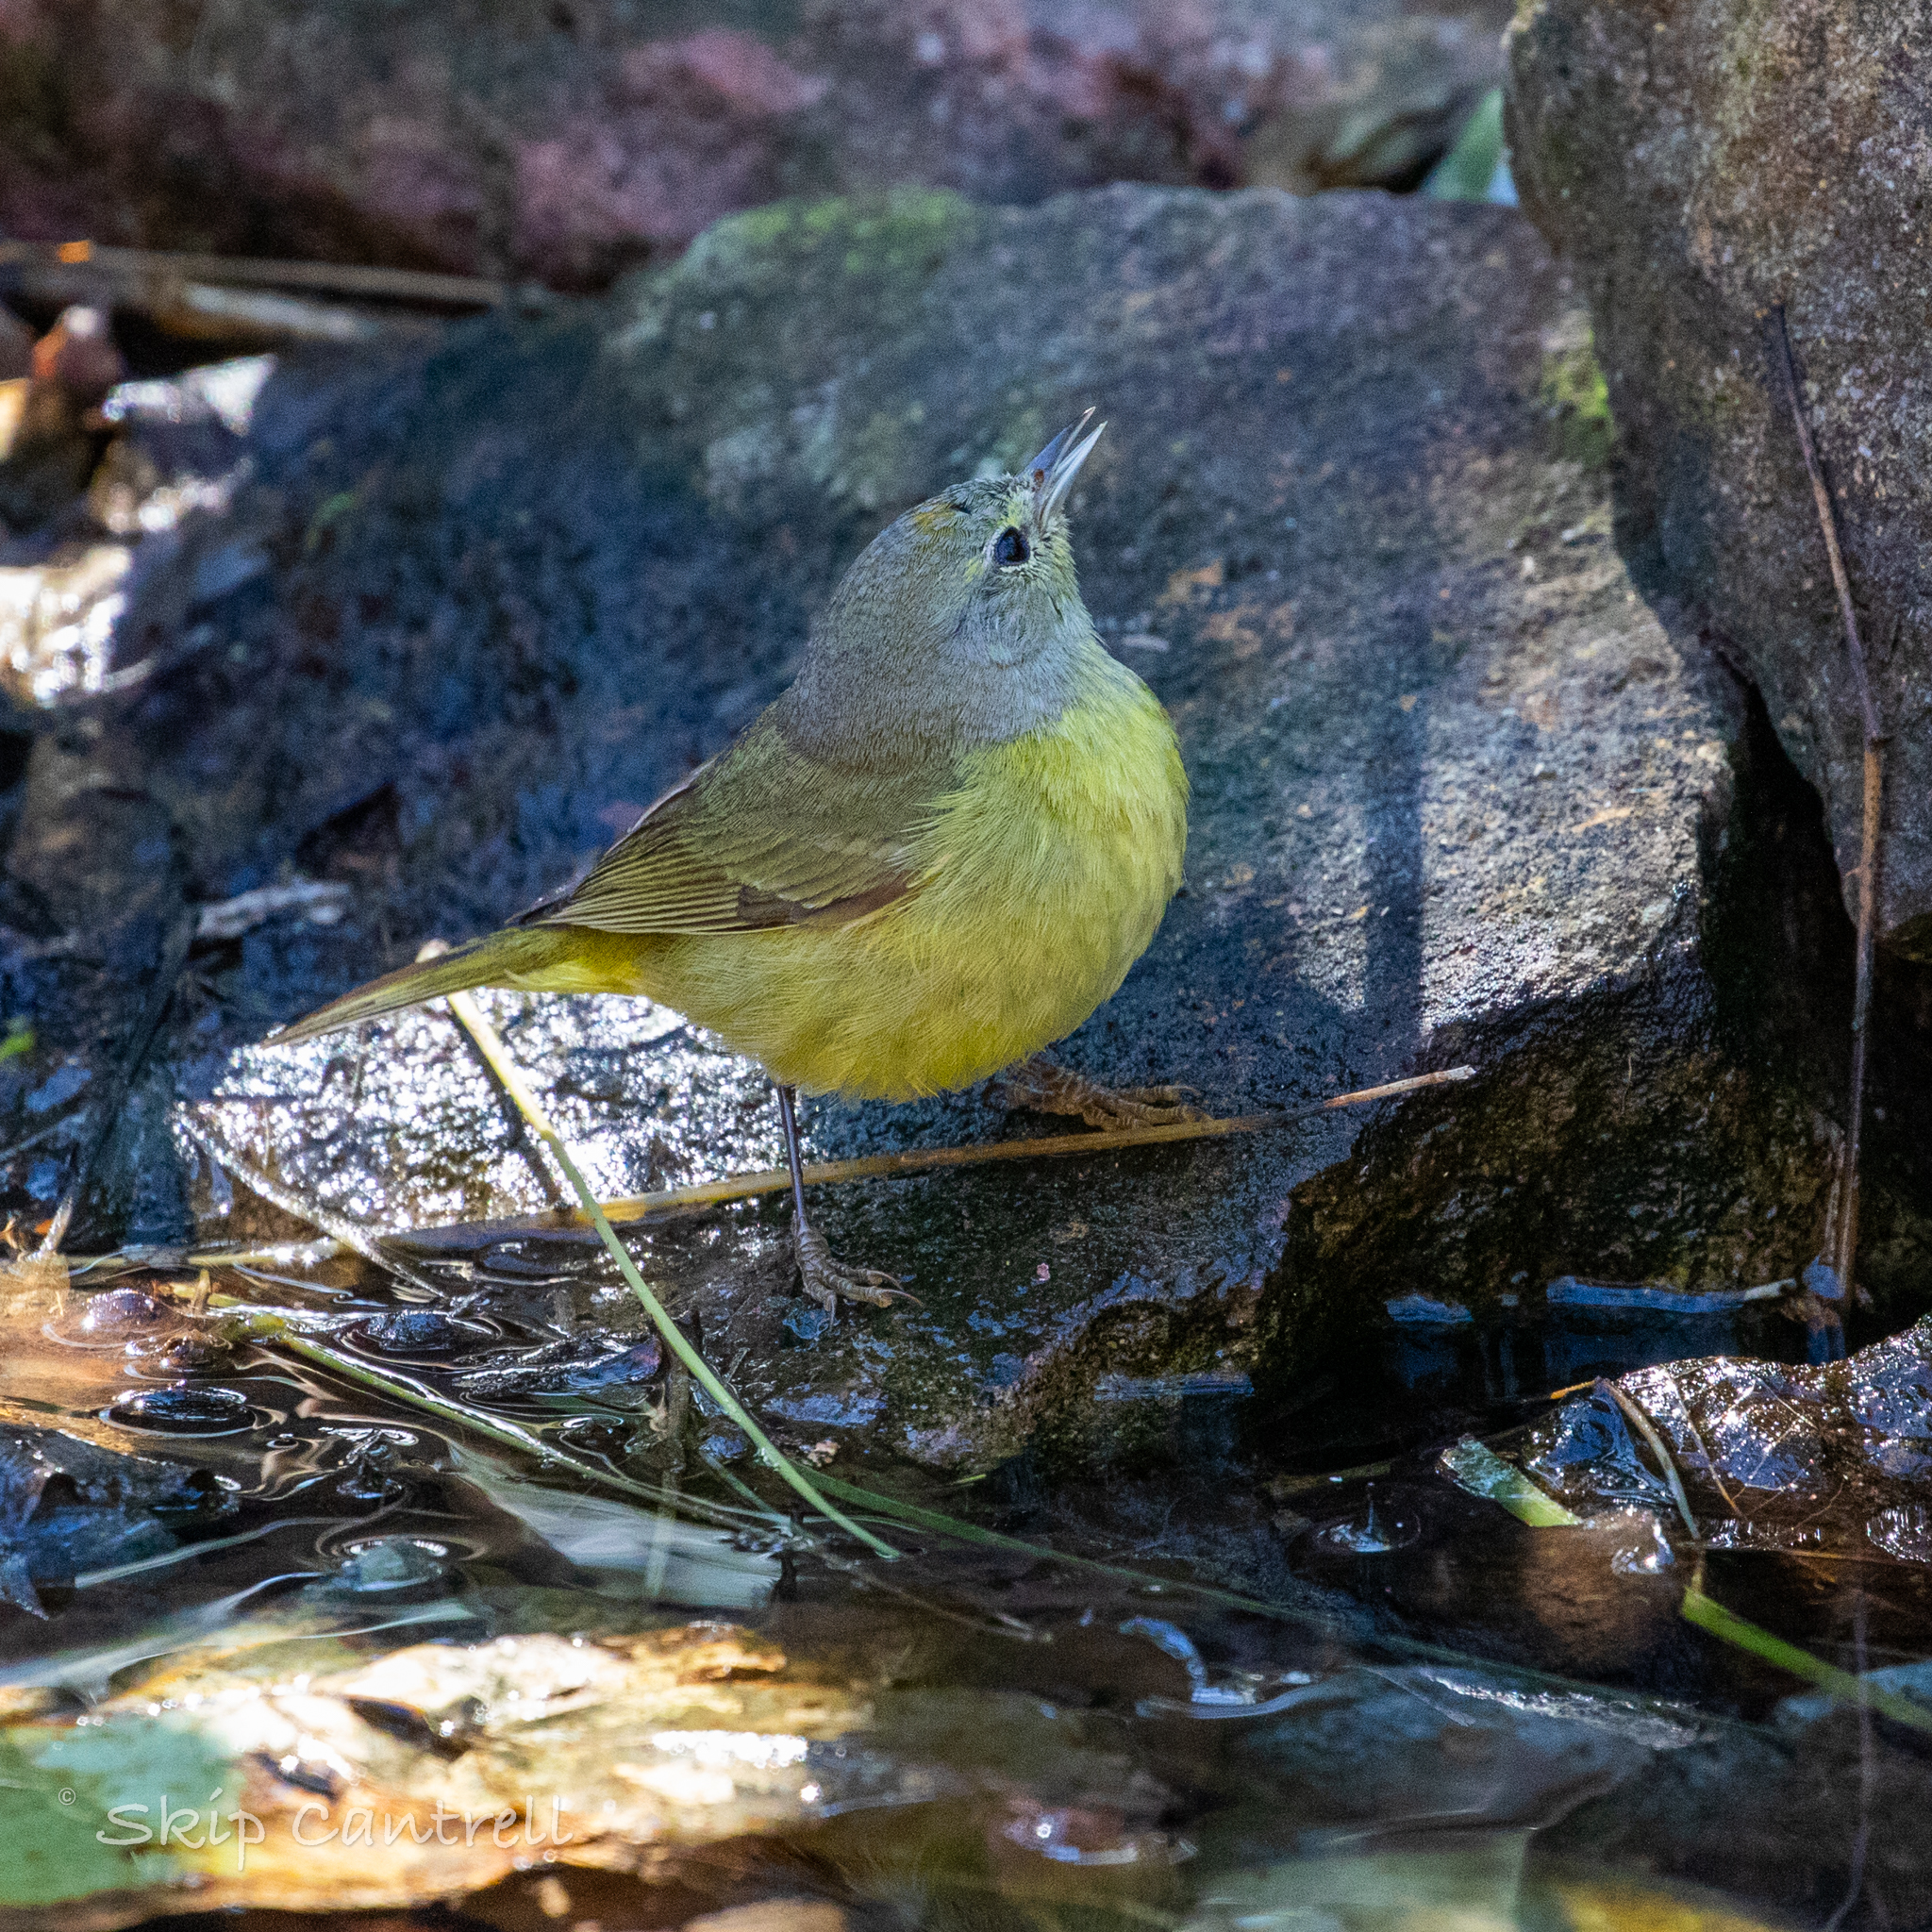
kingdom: Animalia
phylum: Chordata
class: Aves
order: Passeriformes
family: Parulidae
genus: Leiothlypis
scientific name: Leiothlypis celata
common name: Orange-crowned warbler
